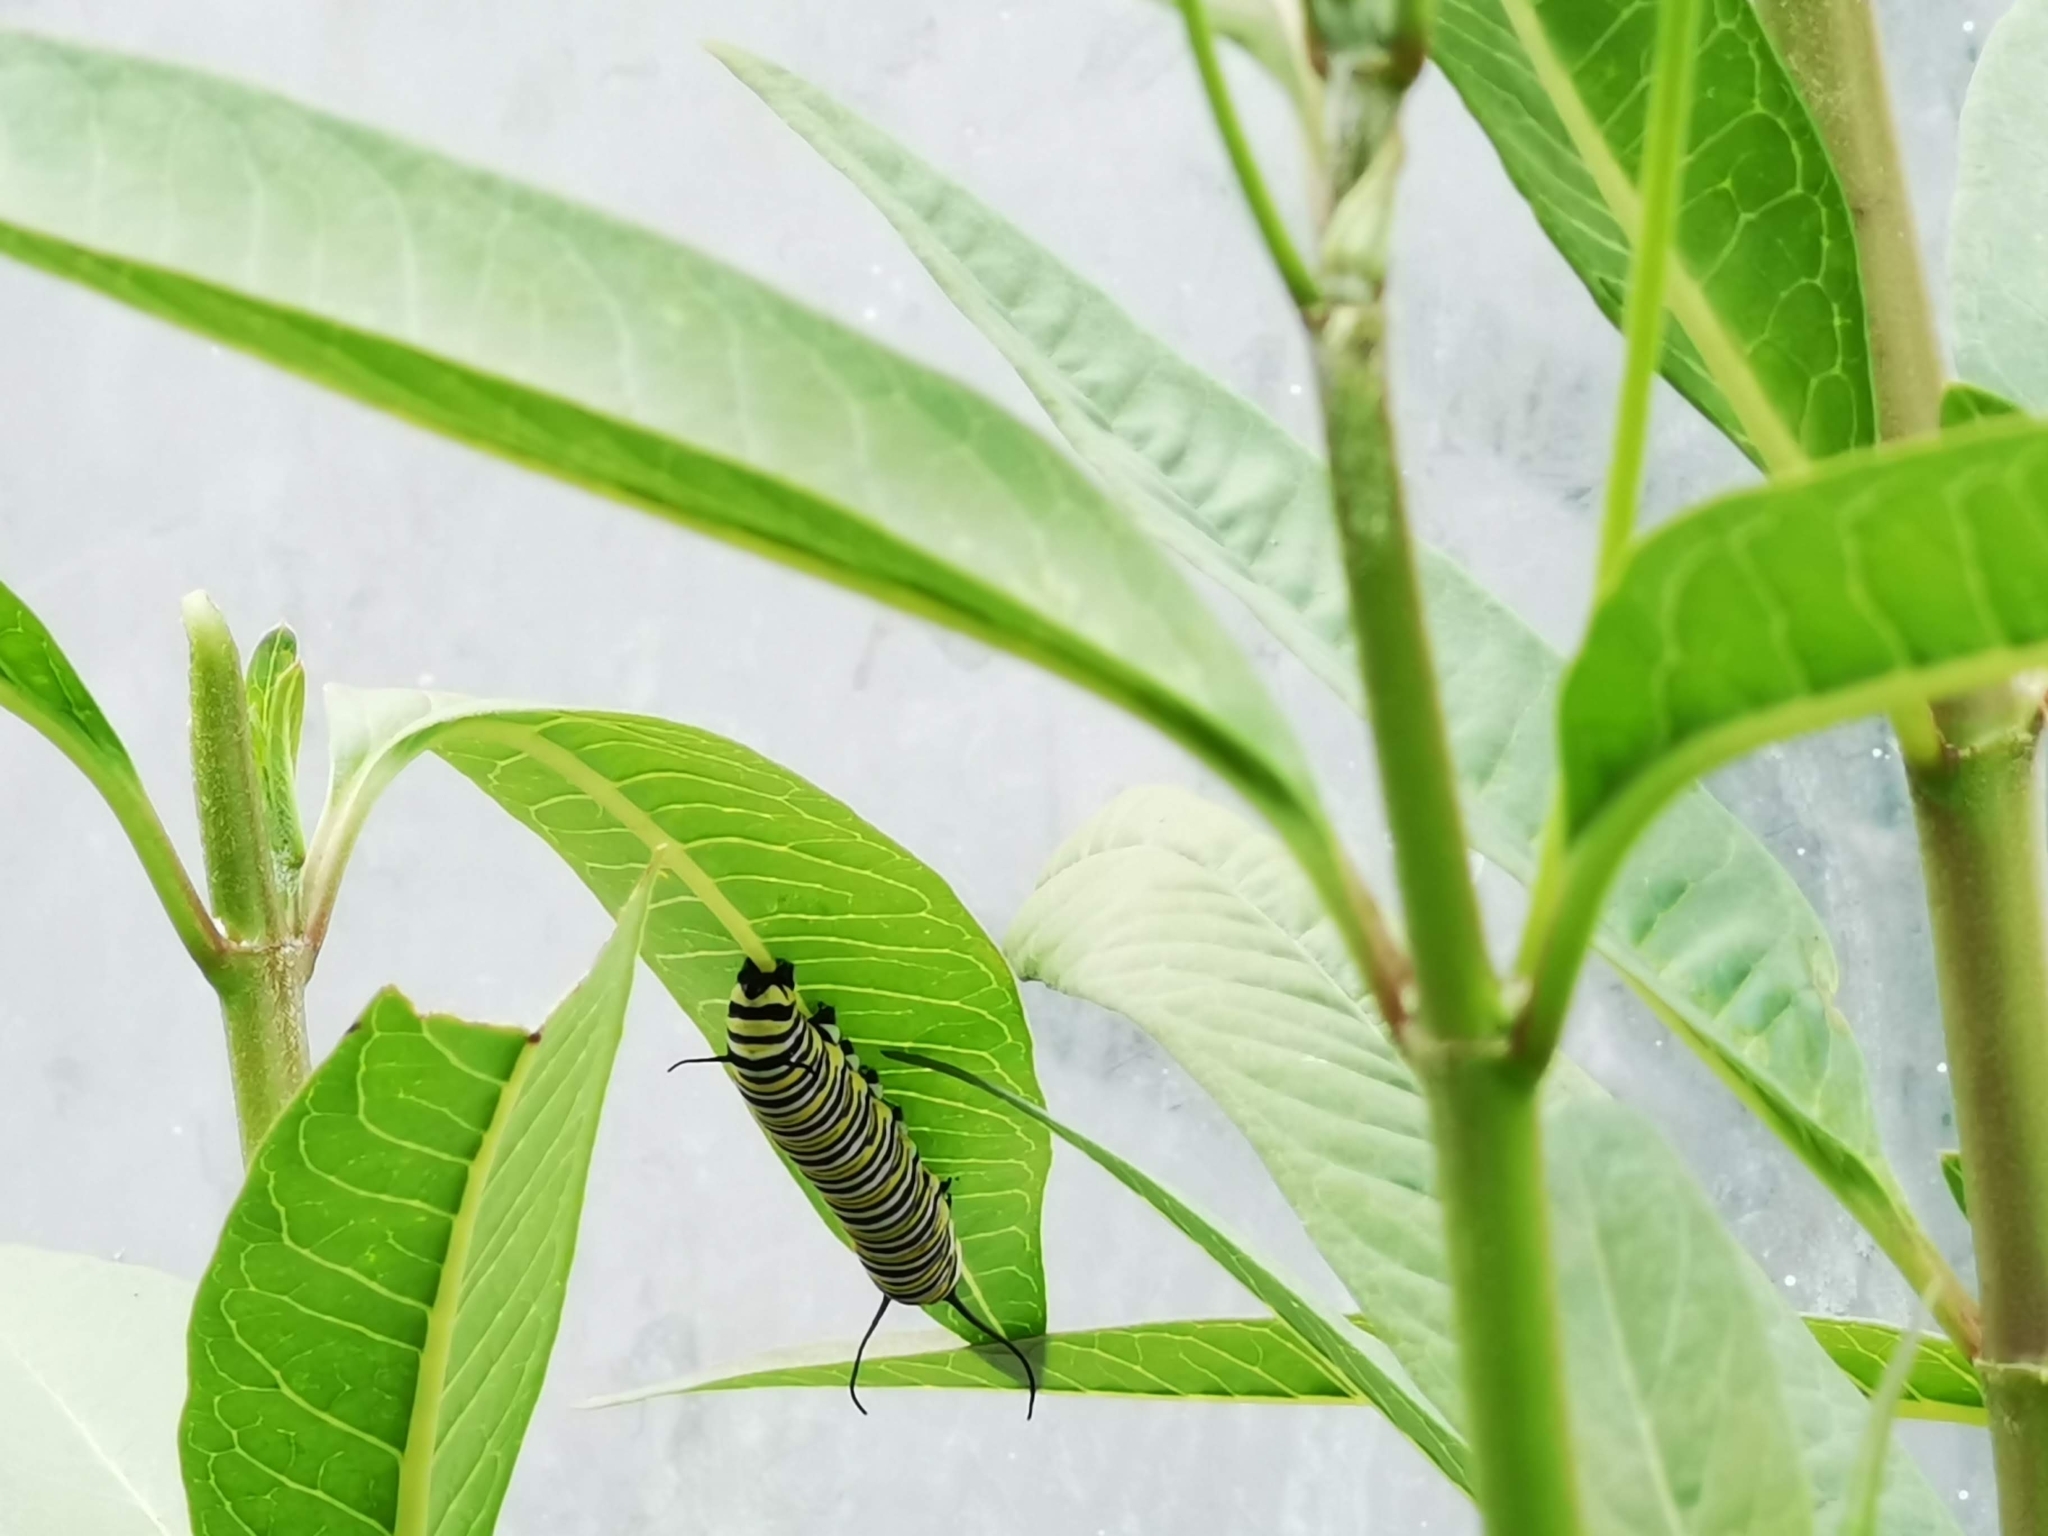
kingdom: Animalia
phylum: Arthropoda
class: Insecta
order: Lepidoptera
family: Nymphalidae
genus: Danaus
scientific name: Danaus plexippus
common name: Monarch
